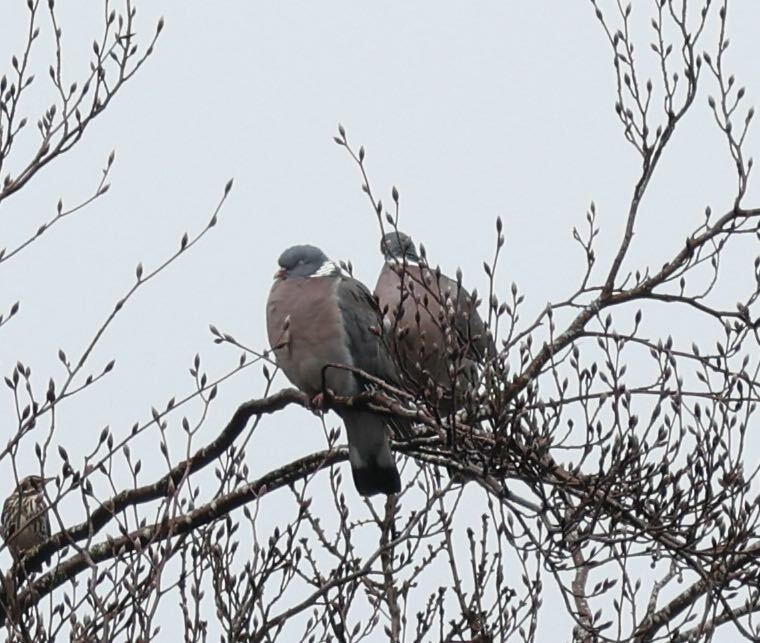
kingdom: Animalia
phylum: Chordata
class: Aves
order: Columbiformes
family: Columbidae
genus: Columba
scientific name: Columba palumbus
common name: Common wood pigeon
